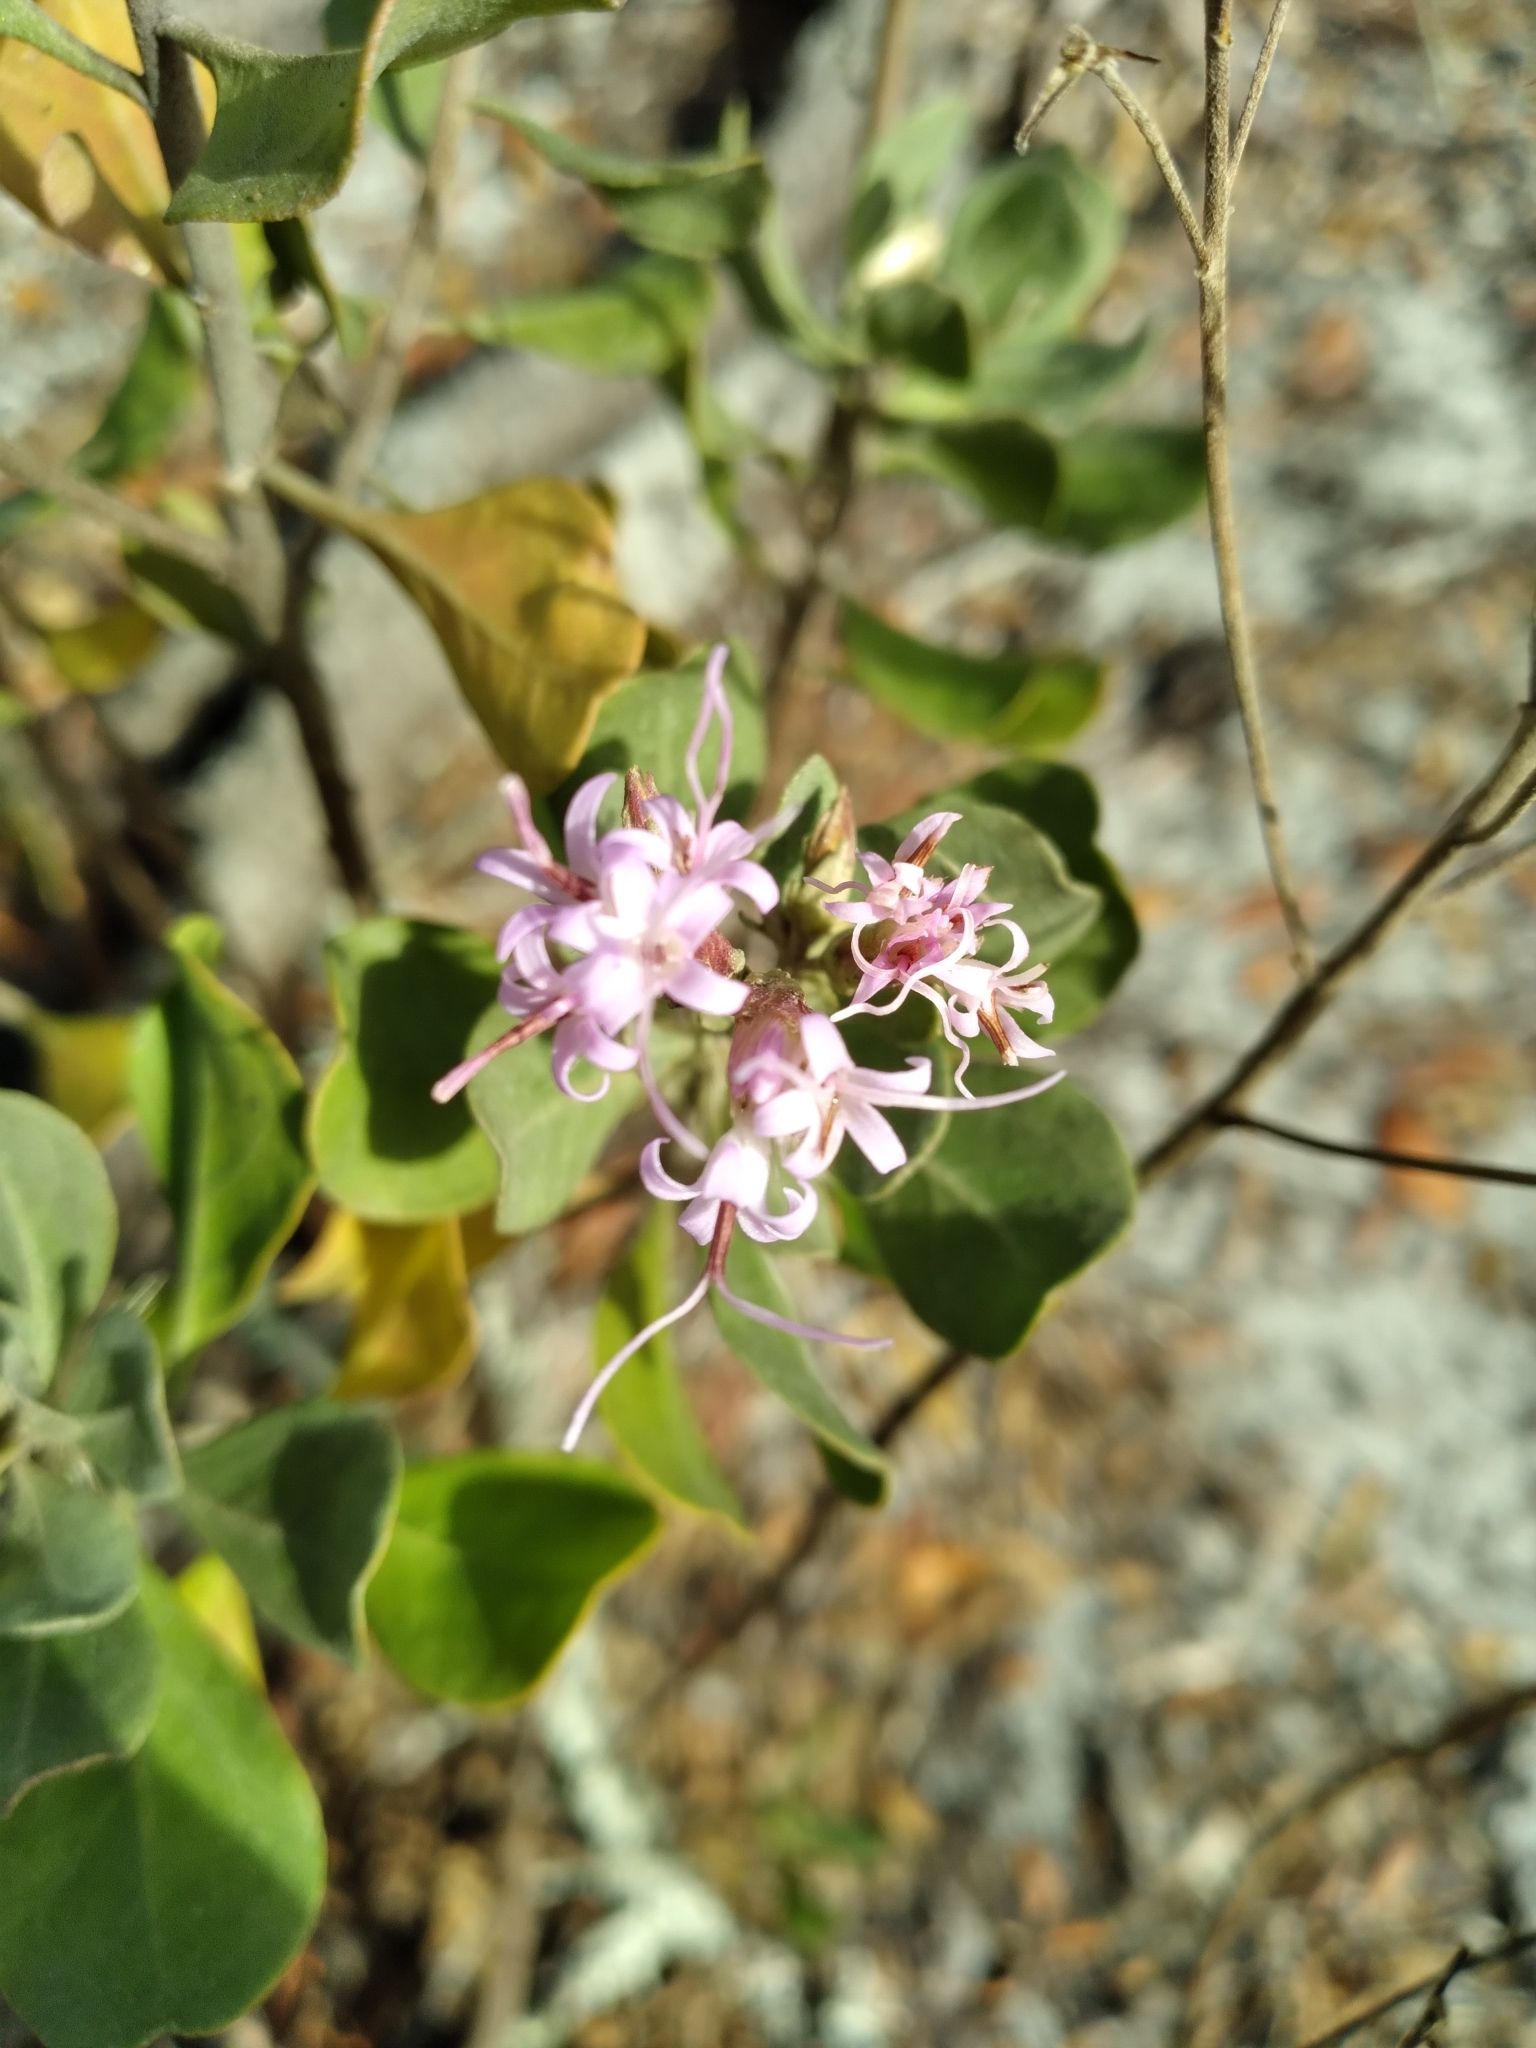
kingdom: Plantae
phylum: Tracheophyta
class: Magnoliopsida
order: Asterales
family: Asteraceae
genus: Garberia
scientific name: Garberia heterophylla
